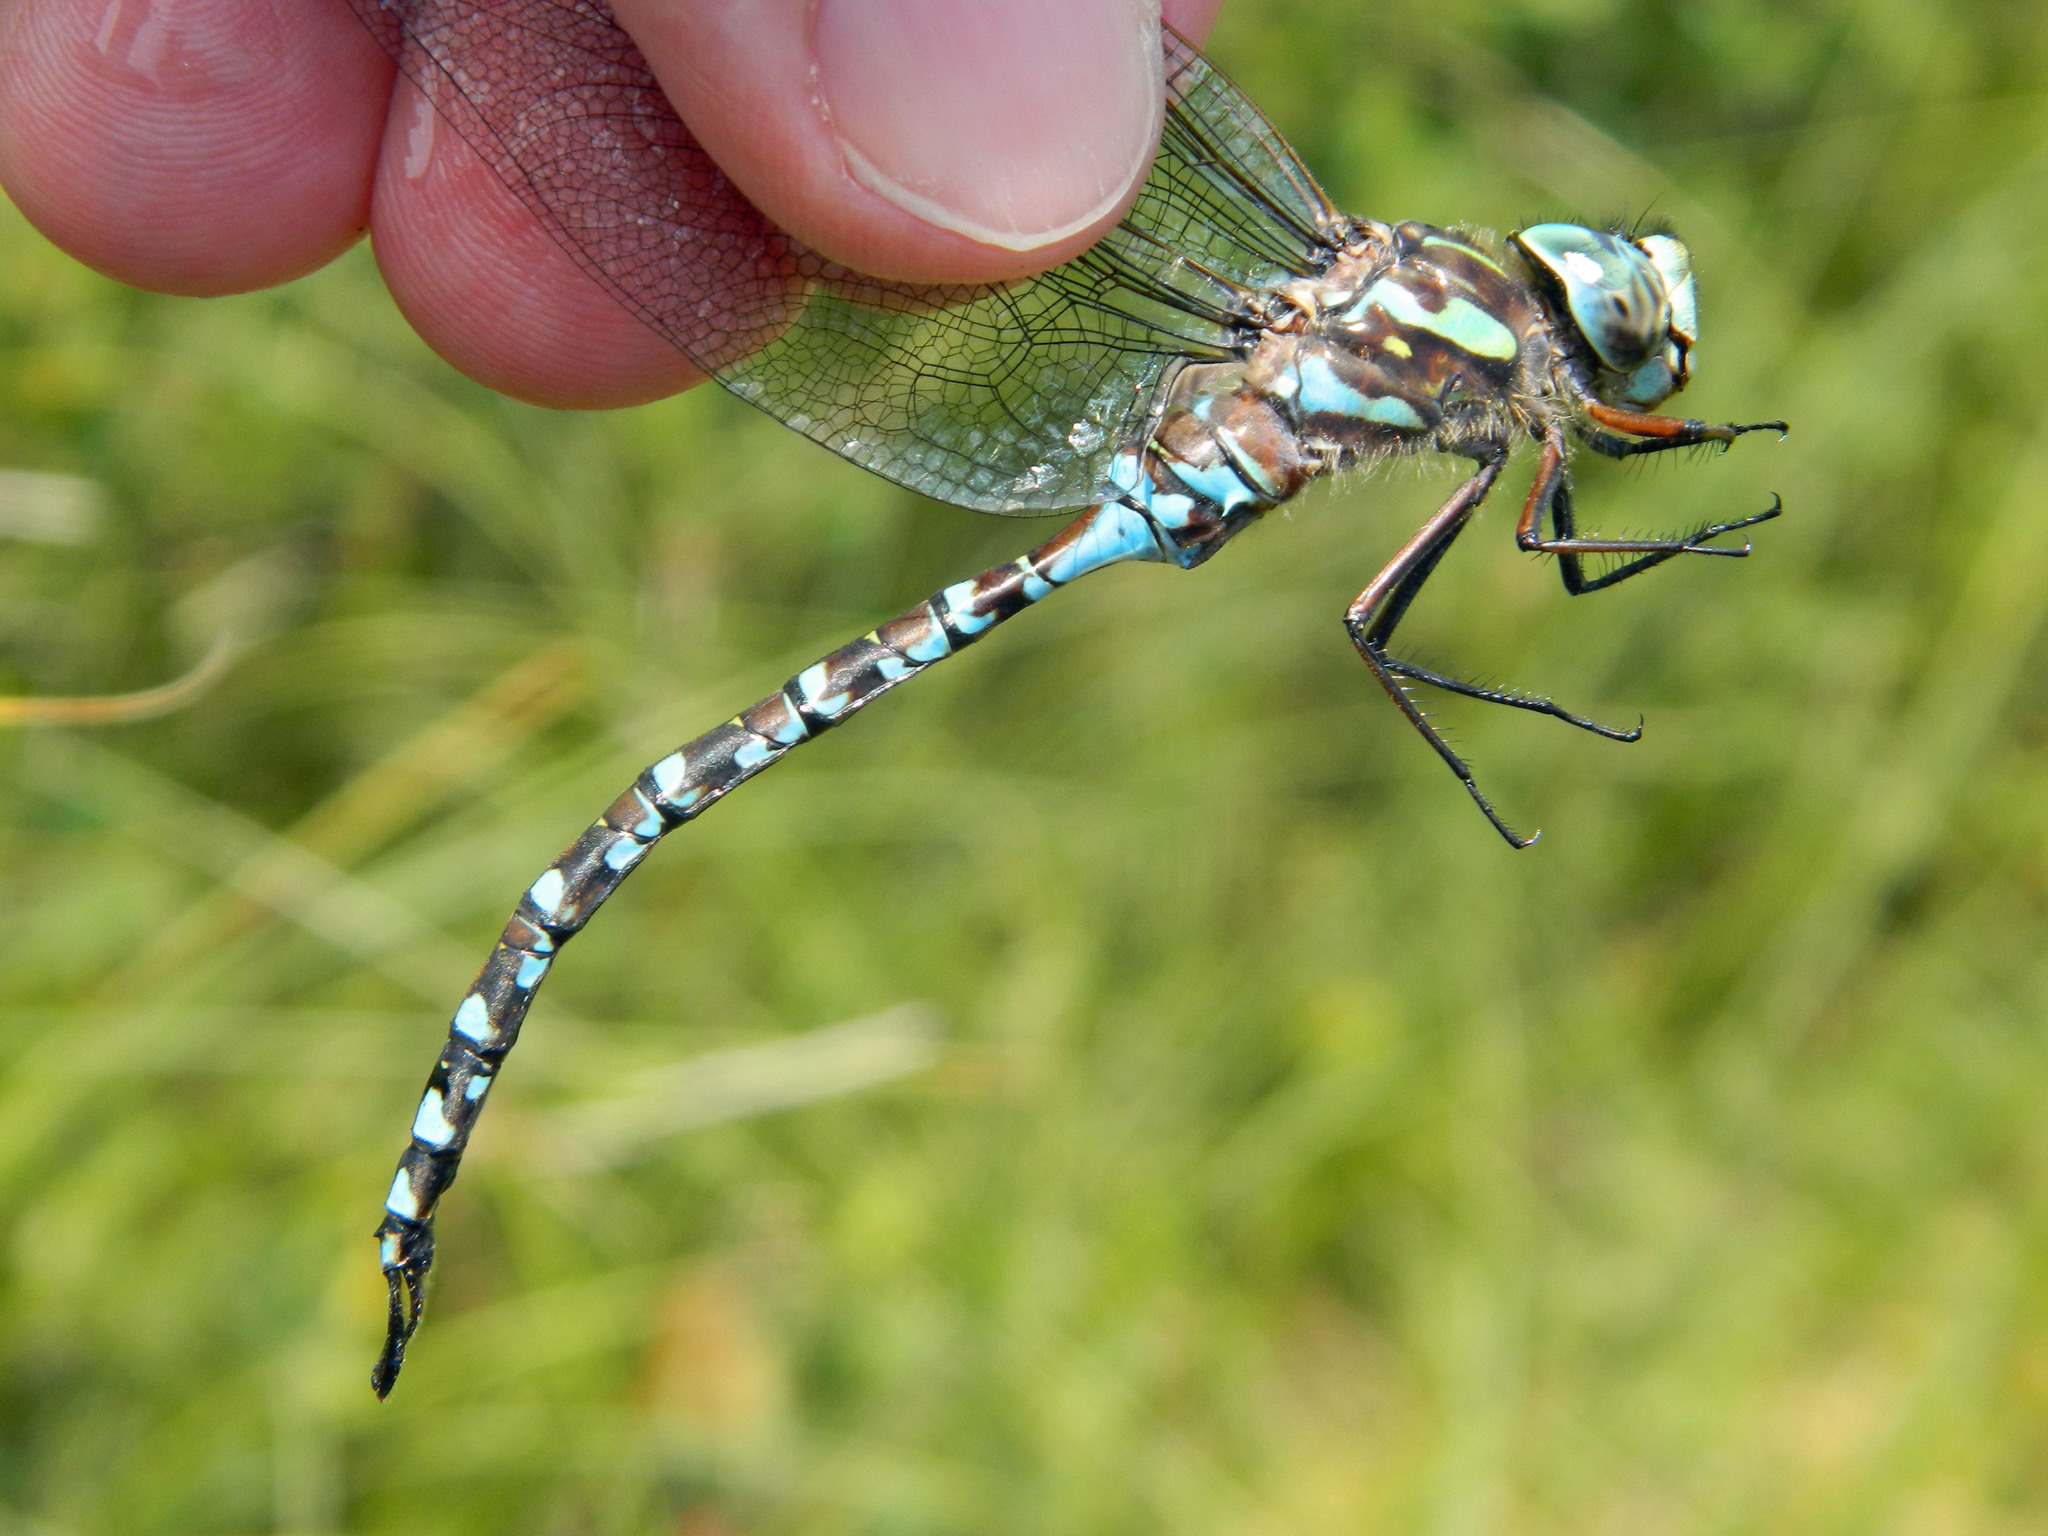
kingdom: Animalia
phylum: Arthropoda
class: Insecta
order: Odonata
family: Aeshnidae
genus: Aeshna
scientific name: Aeshna canadensis
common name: Canada darner
